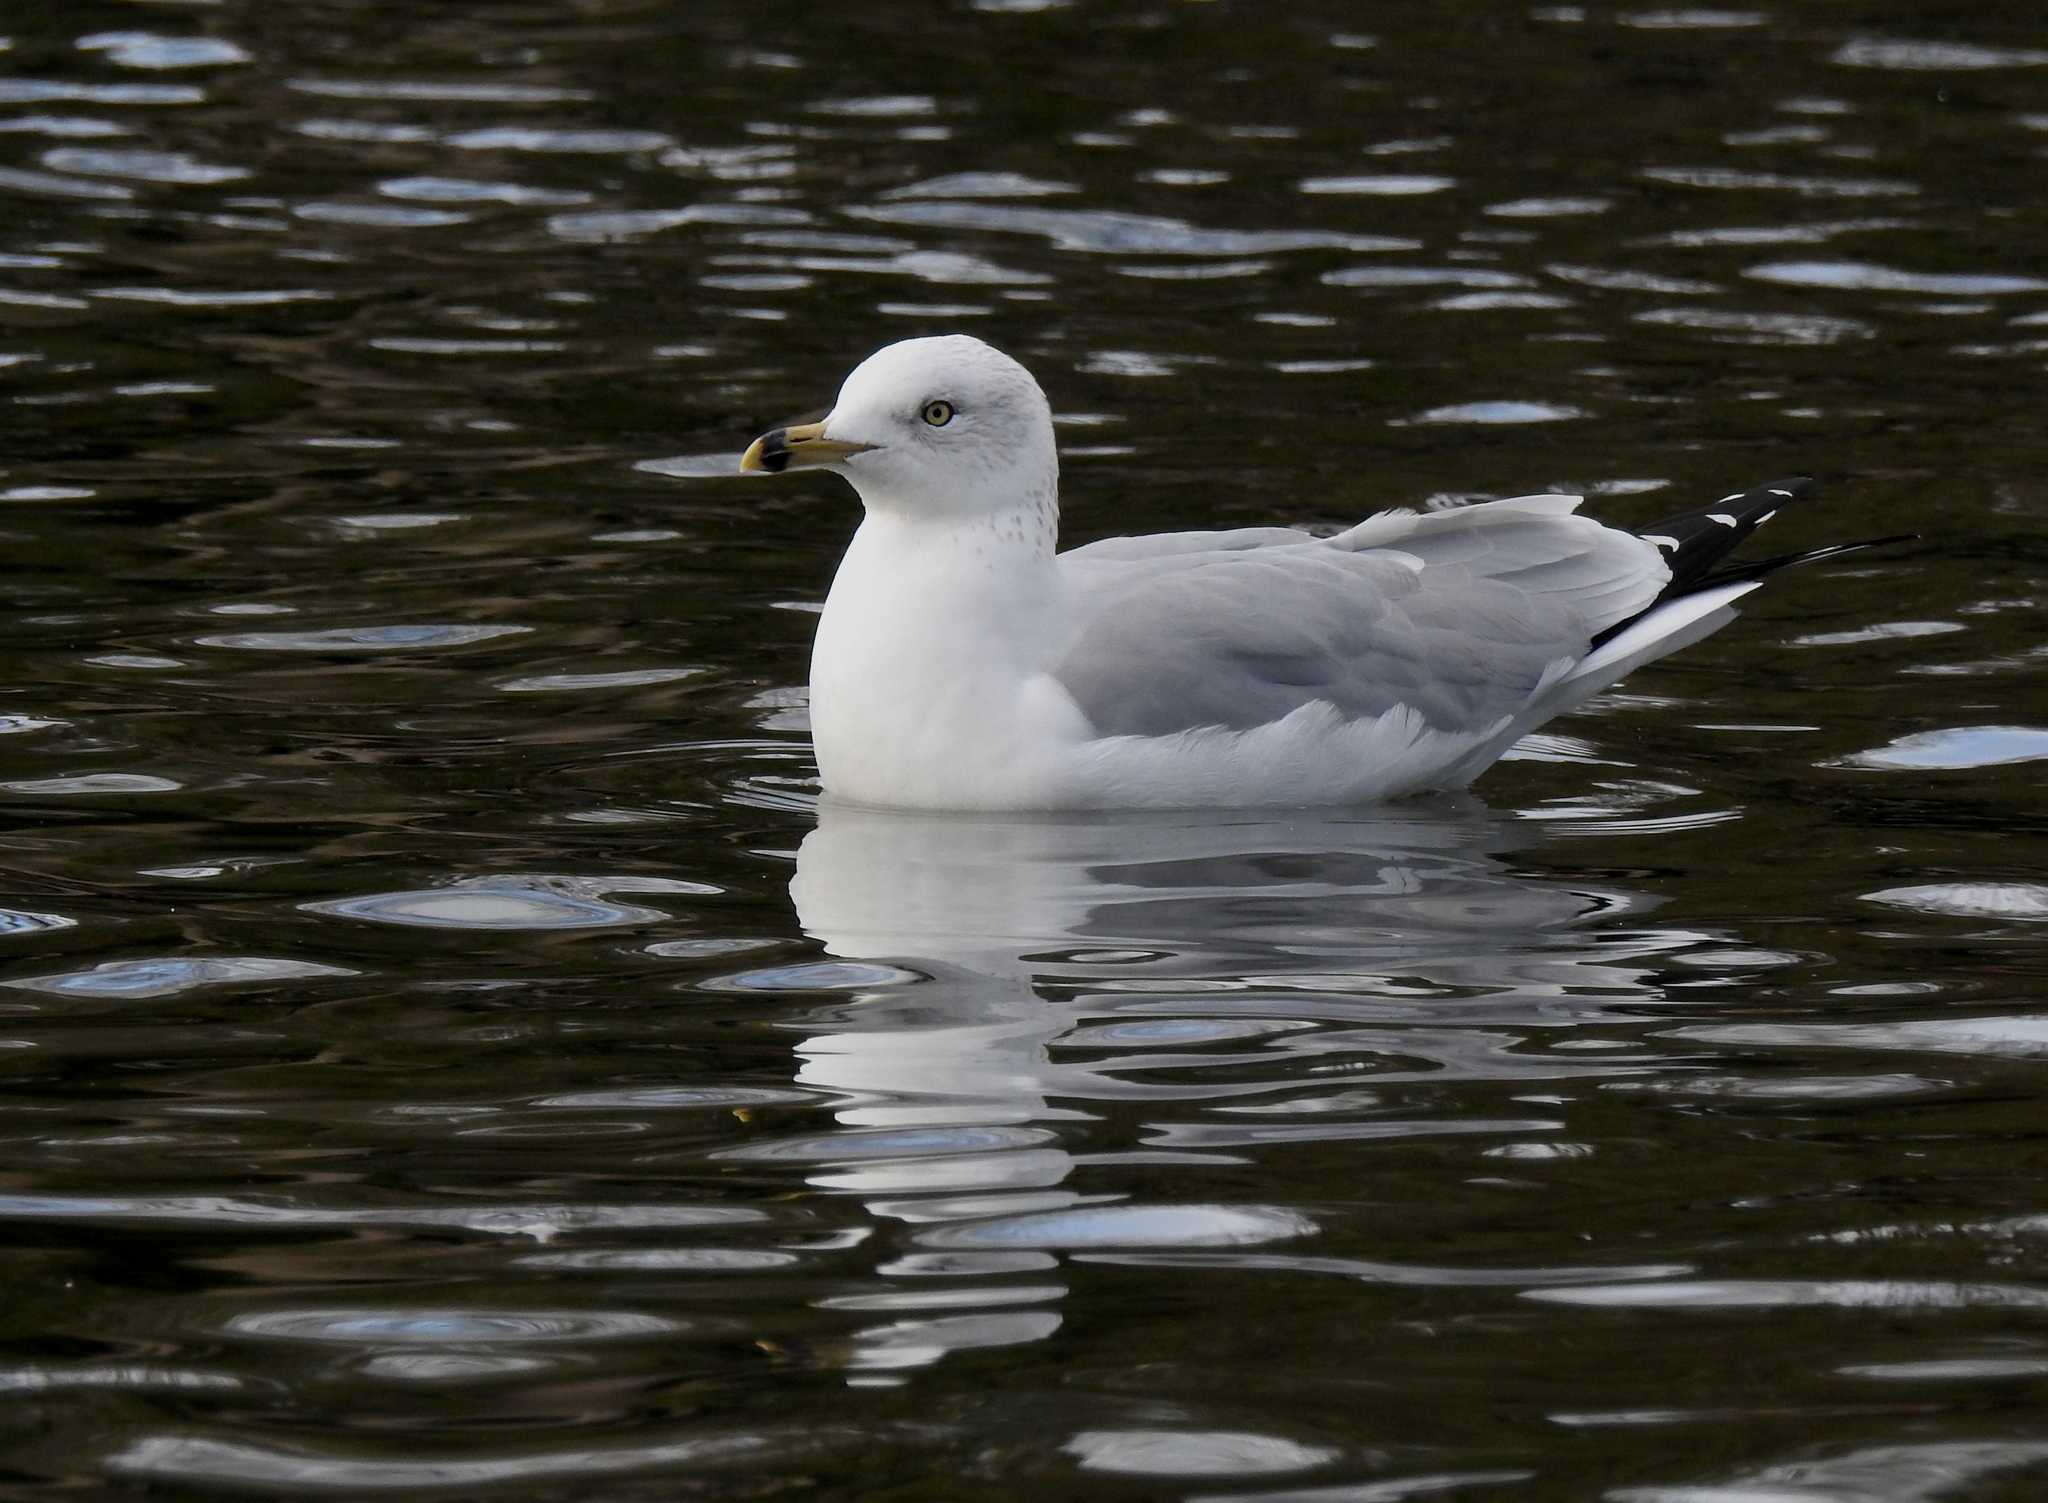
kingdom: Animalia
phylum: Chordata
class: Aves
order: Charadriiformes
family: Laridae
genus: Larus
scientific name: Larus delawarensis
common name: Ring-billed gull
